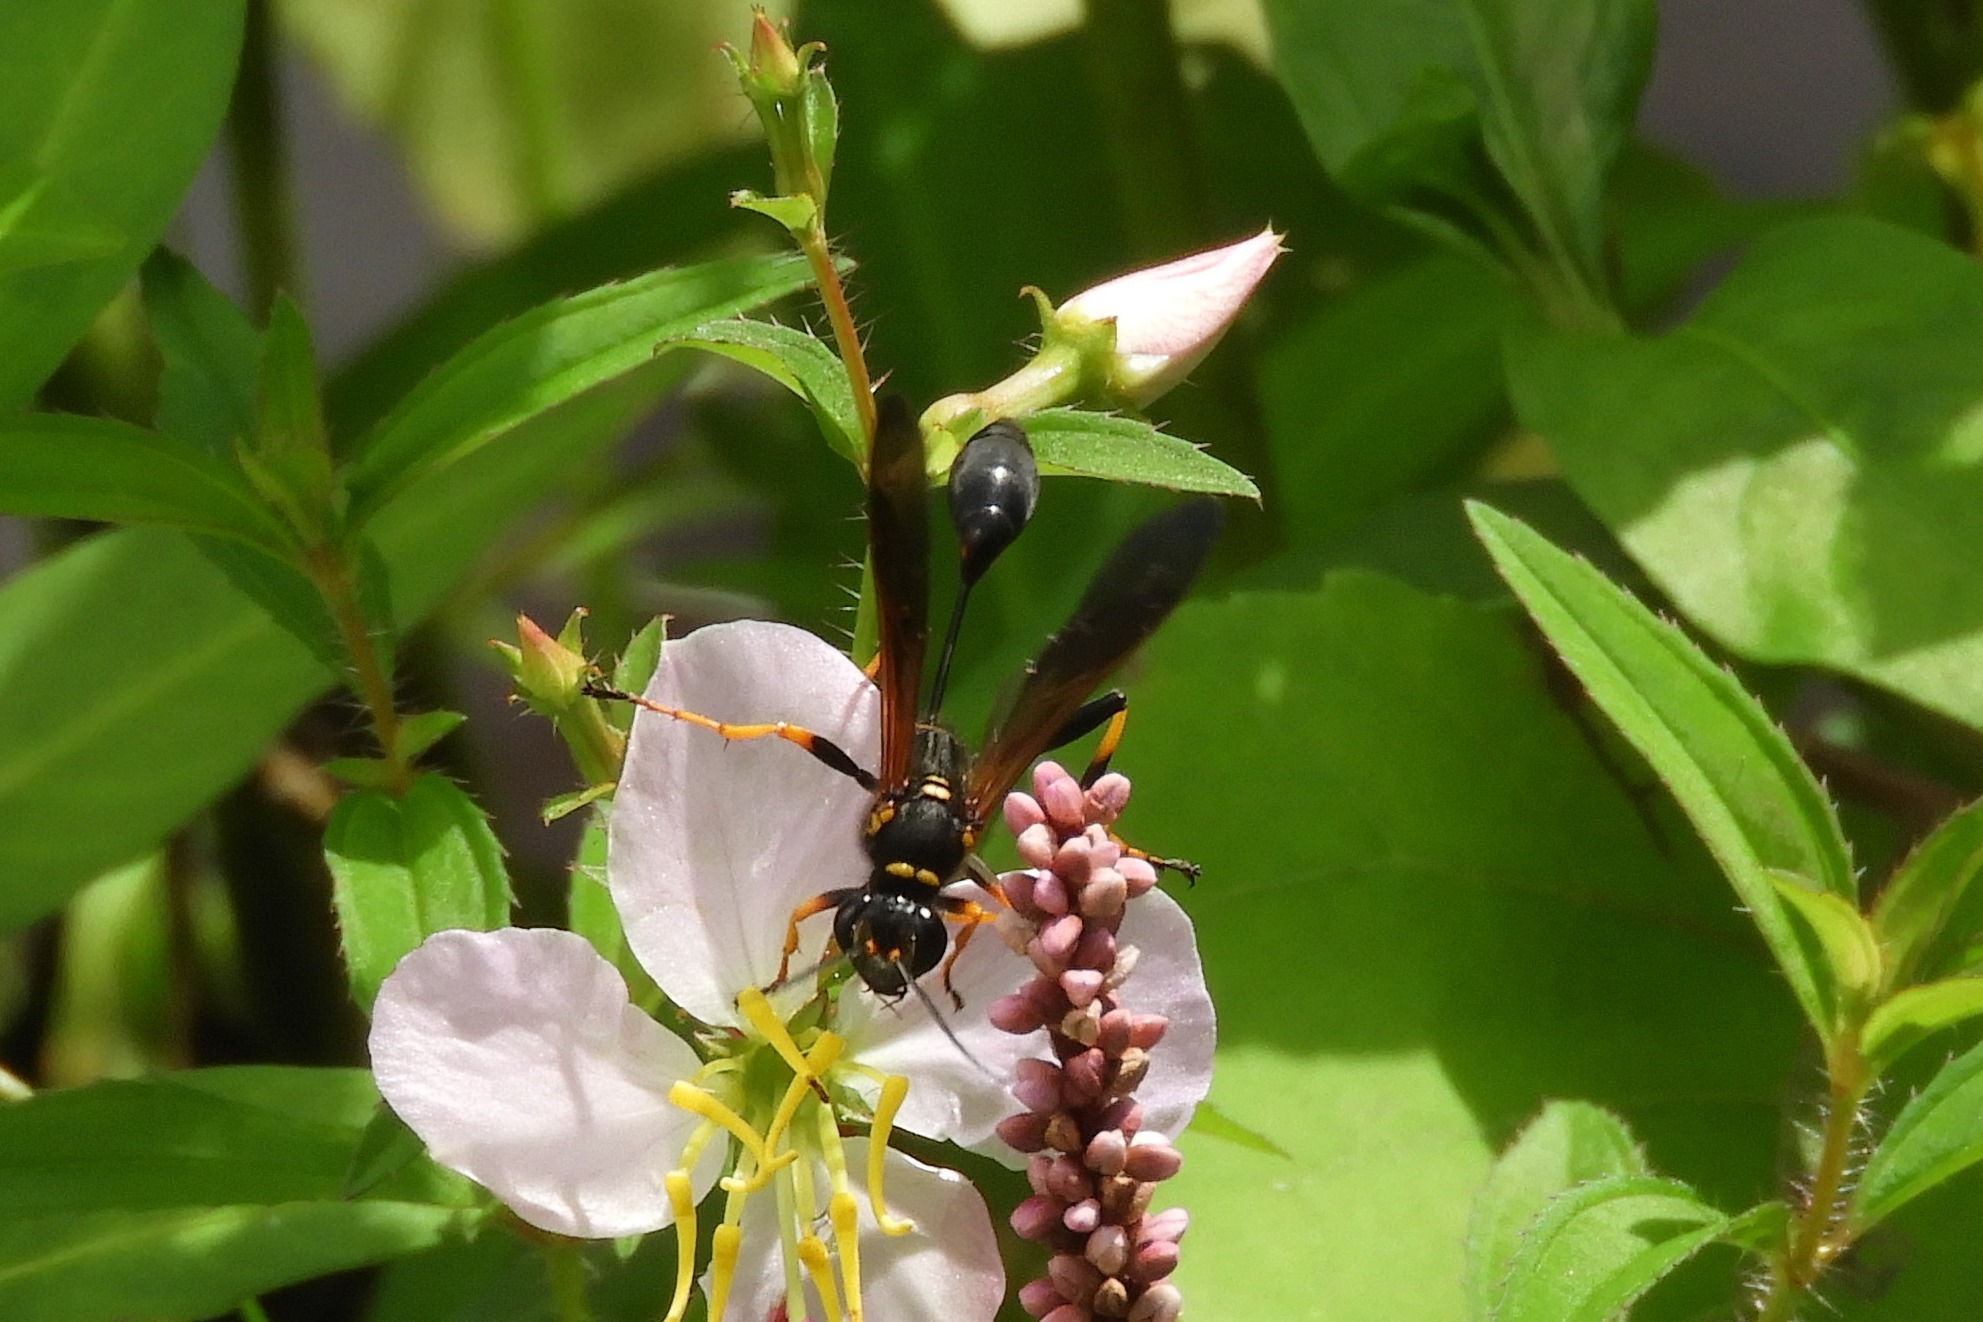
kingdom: Animalia
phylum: Arthropoda
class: Insecta
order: Hymenoptera
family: Sphecidae
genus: Sceliphron
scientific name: Sceliphron caementarium
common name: Mud dauber
